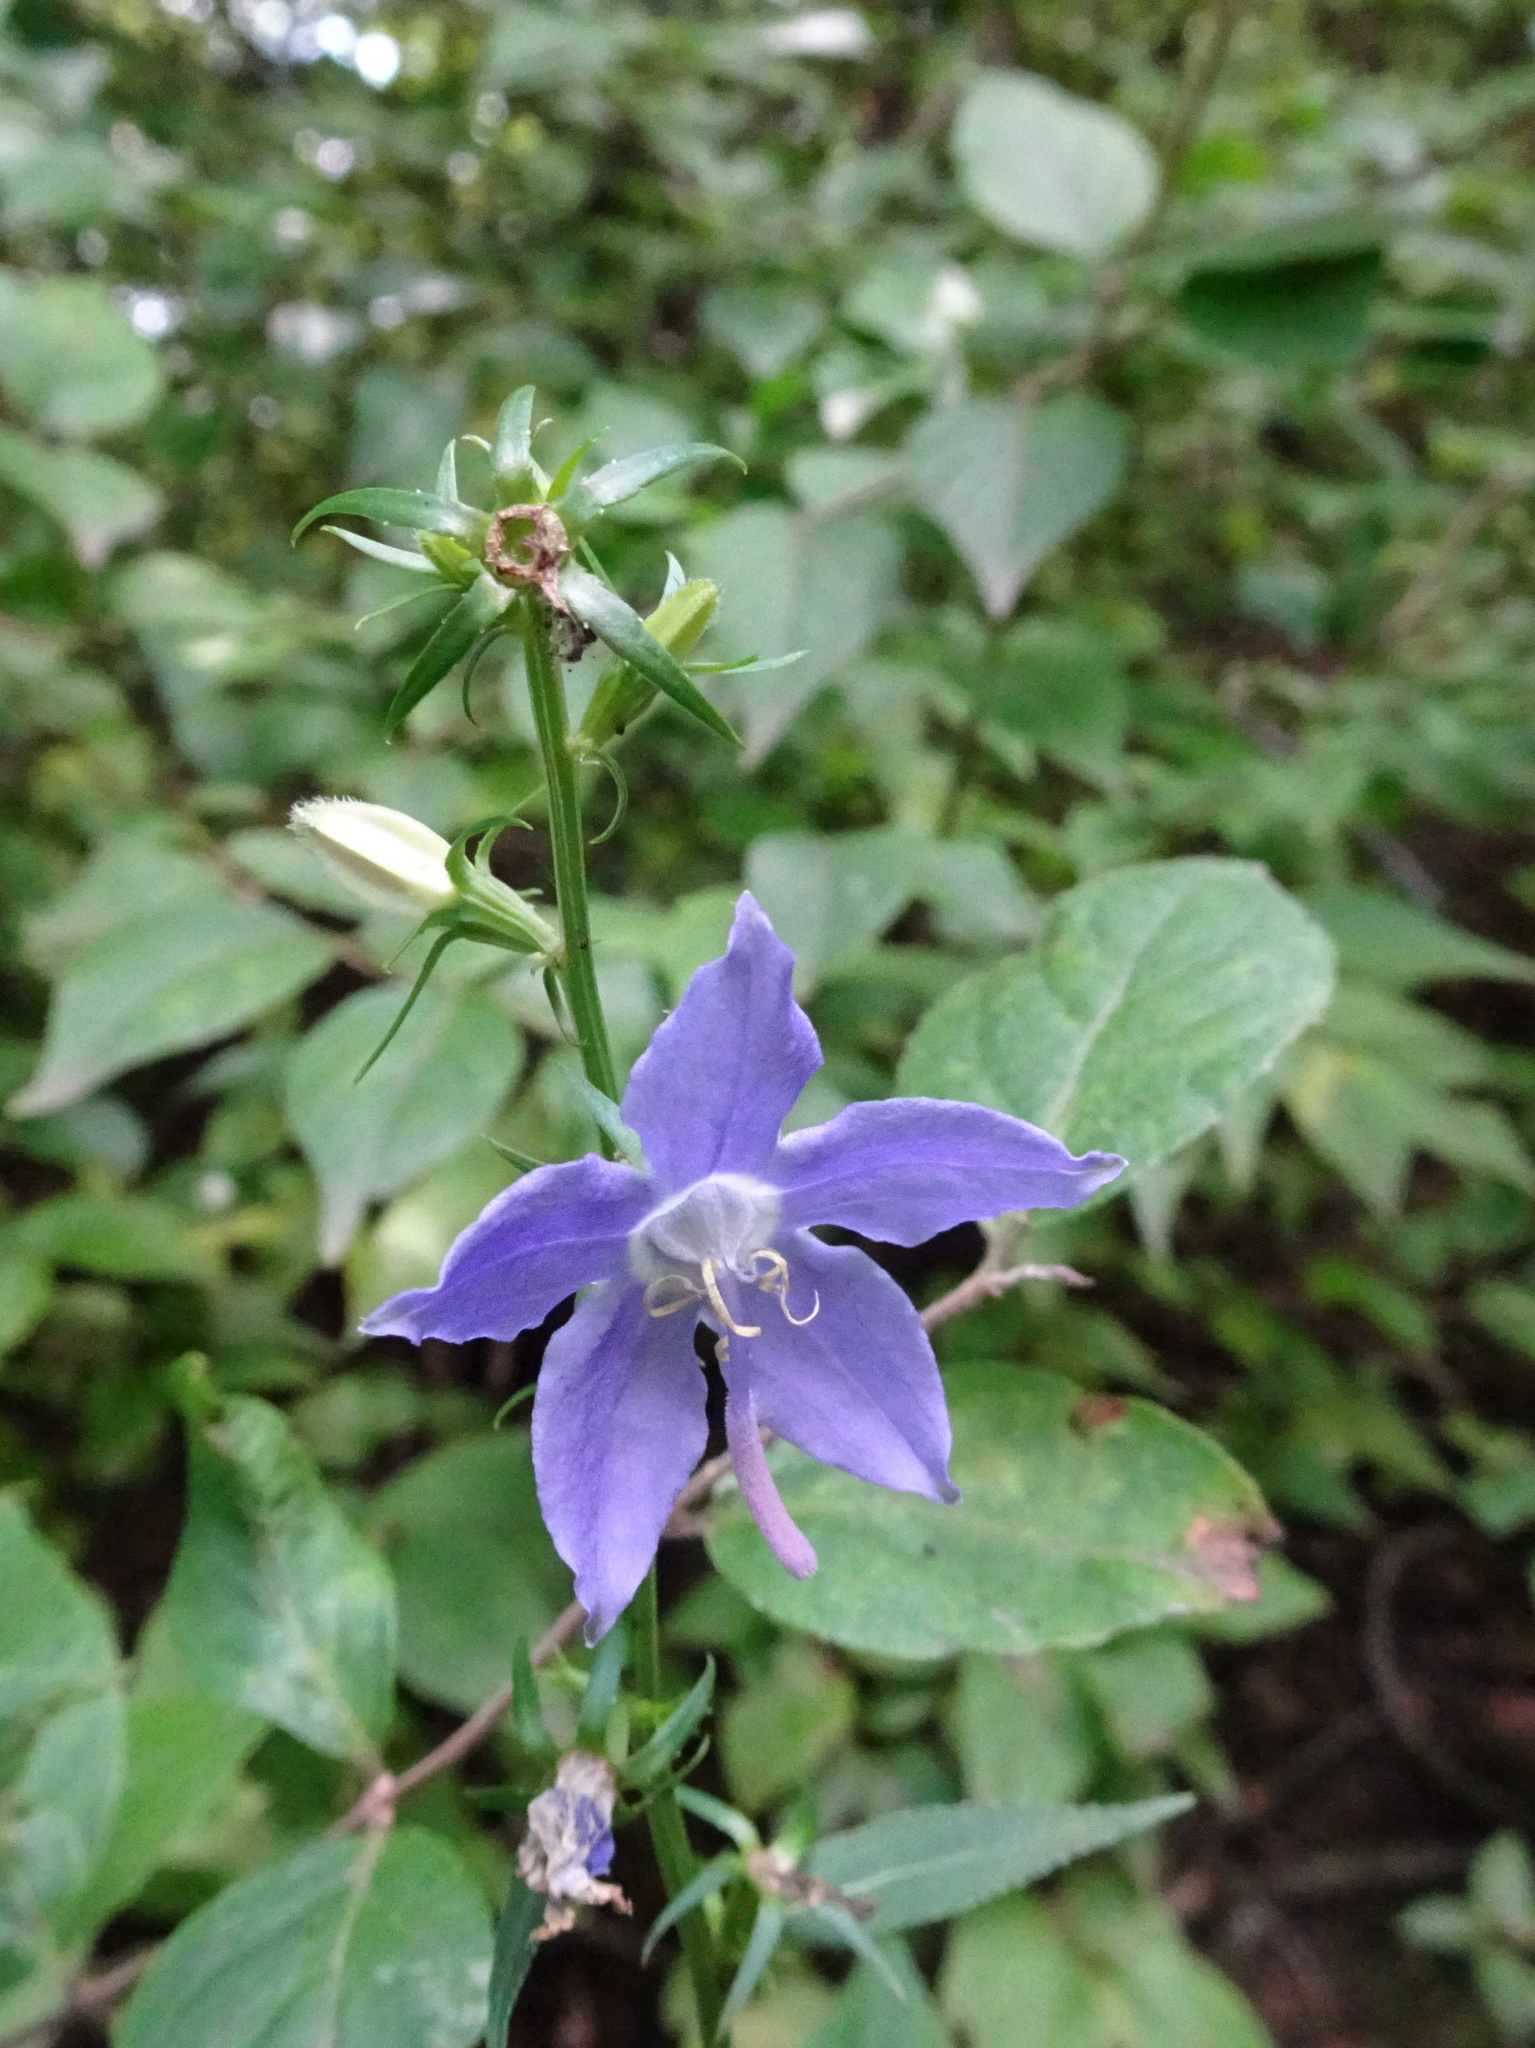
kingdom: Plantae
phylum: Tracheophyta
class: Magnoliopsida
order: Asterales
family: Campanulaceae
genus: Campanulastrum
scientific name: Campanulastrum americanum
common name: American bellflower
